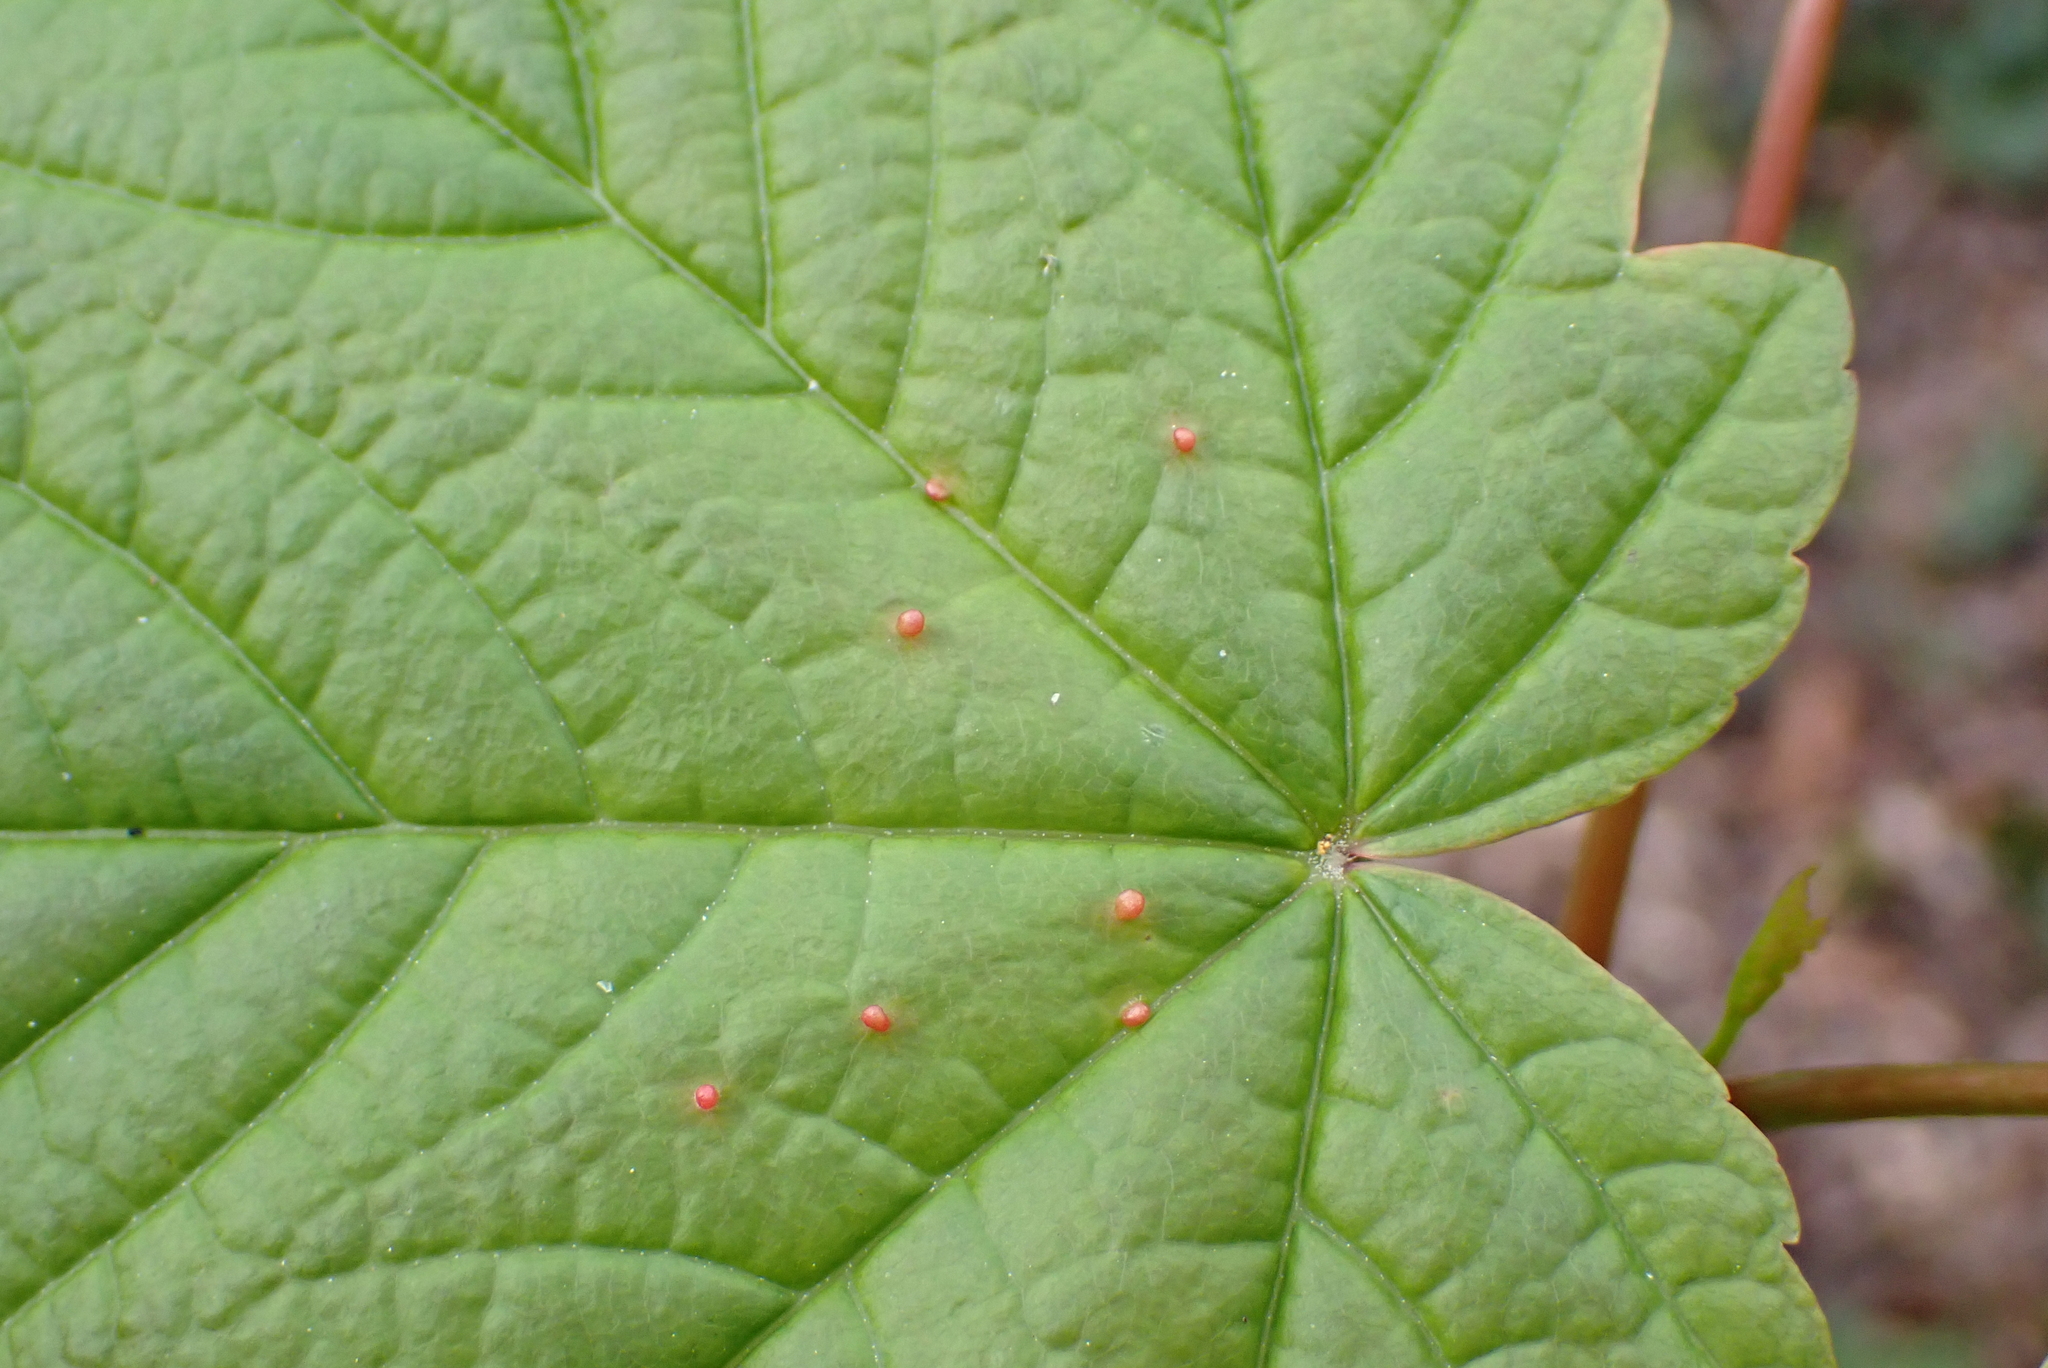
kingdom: Plantae
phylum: Tracheophyta
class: Magnoliopsida
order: Sapindales
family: Sapindaceae
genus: Acer
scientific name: Acer pseudoplatanus
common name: Sycamore
